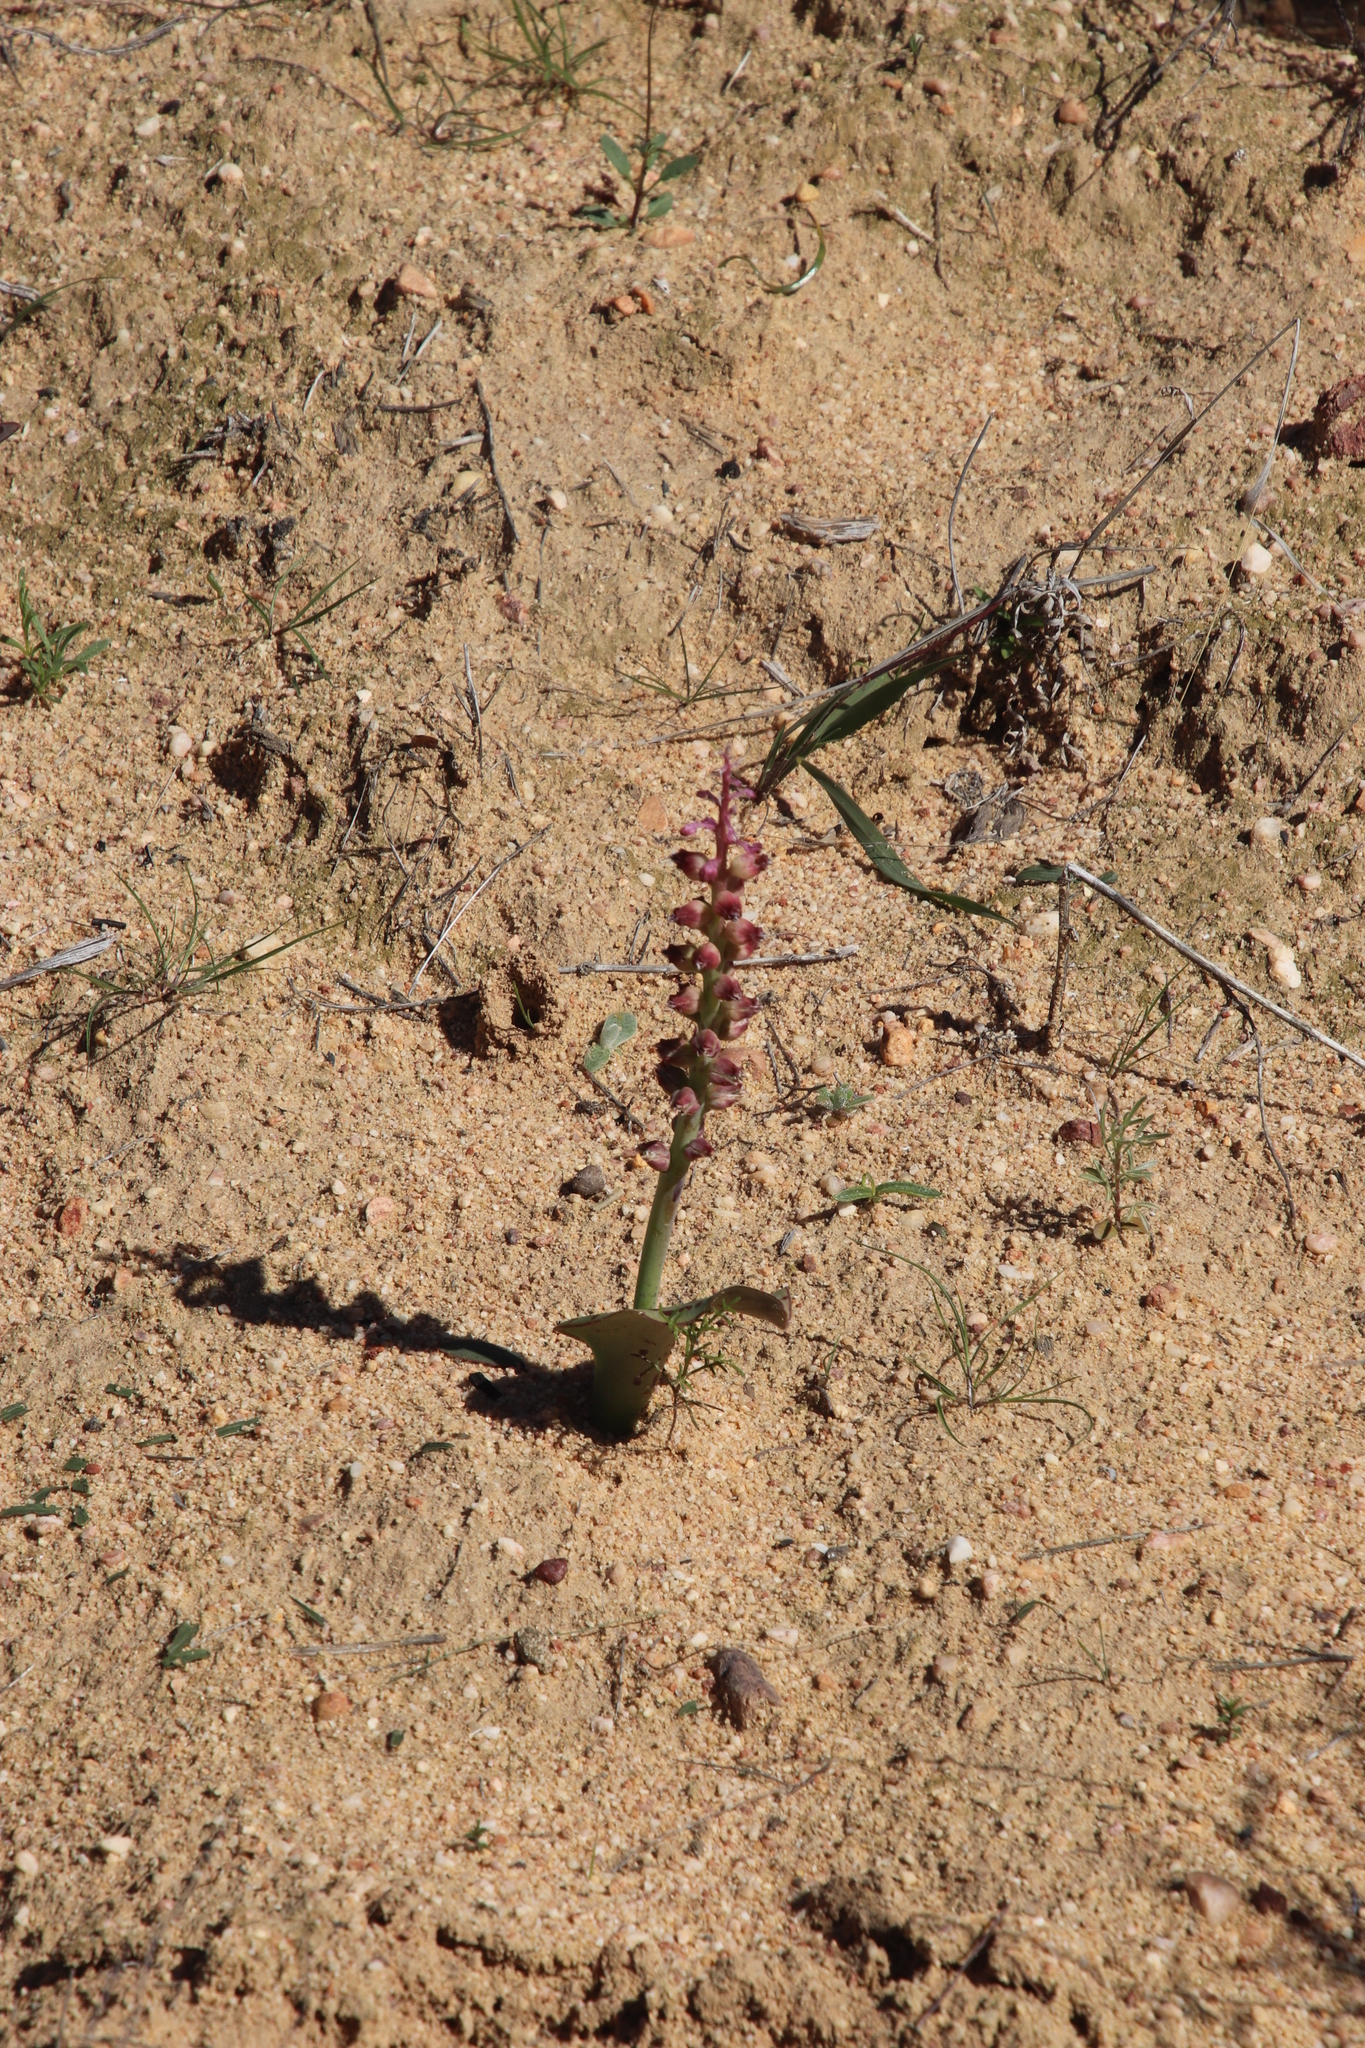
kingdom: Plantae
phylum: Tracheophyta
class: Liliopsida
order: Asparagales
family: Asparagaceae
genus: Lachenalia
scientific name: Lachenalia membranacea
